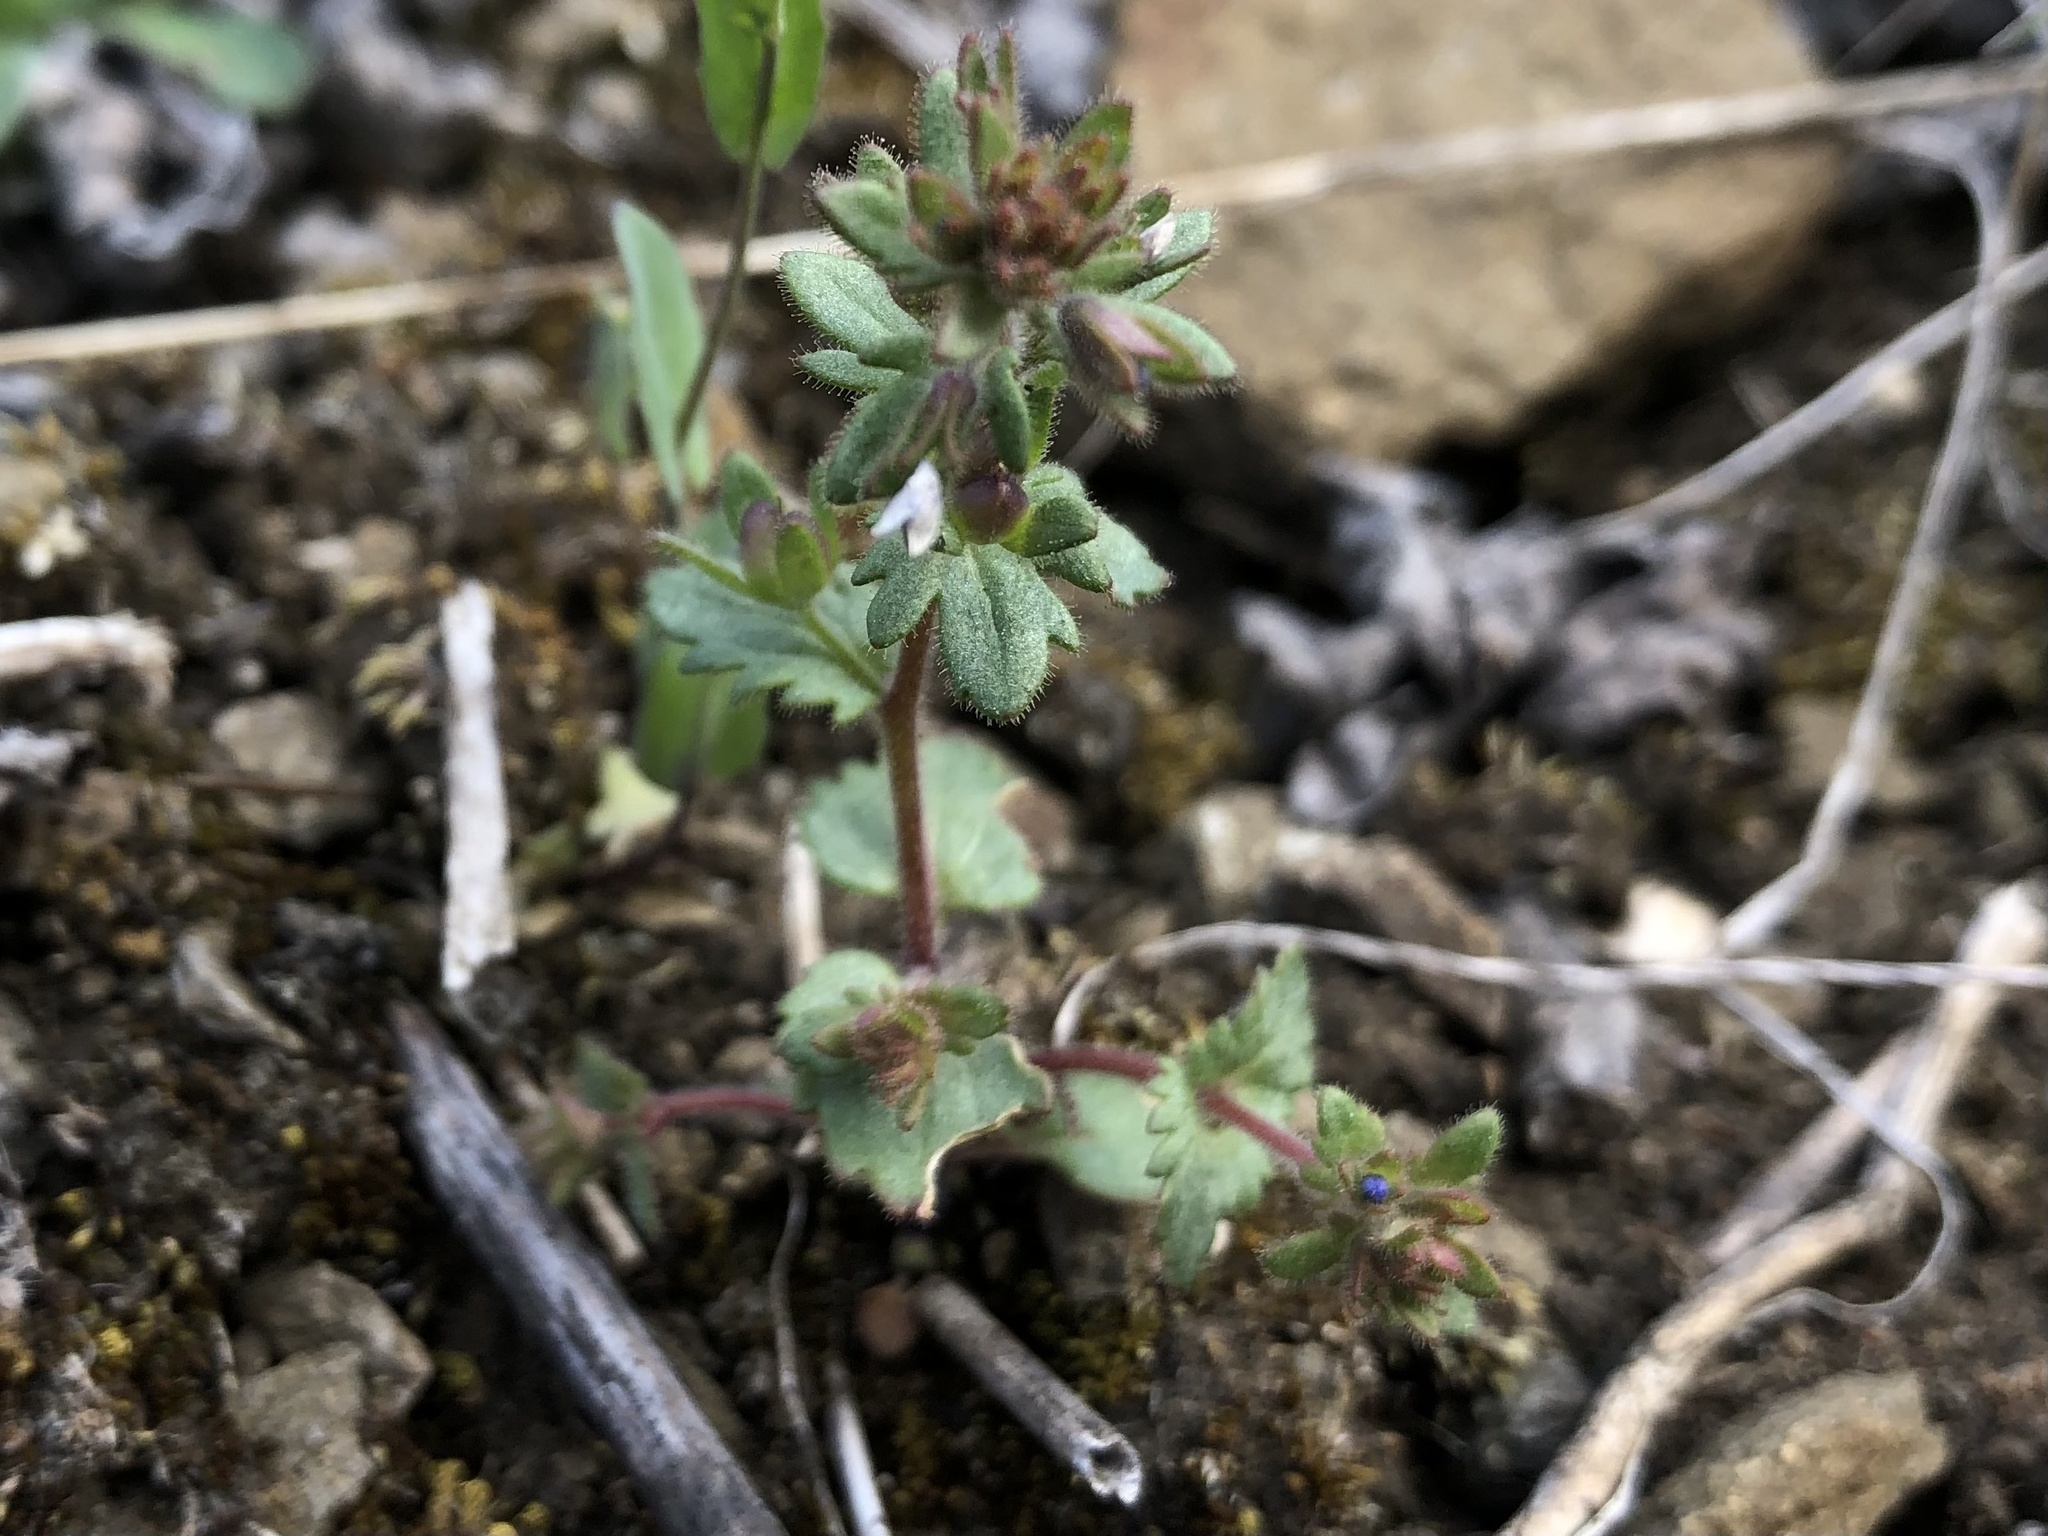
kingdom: Plantae
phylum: Tracheophyta
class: Magnoliopsida
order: Lamiales
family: Plantaginaceae
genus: Veronica
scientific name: Veronica praecox
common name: Breckland speedwell
